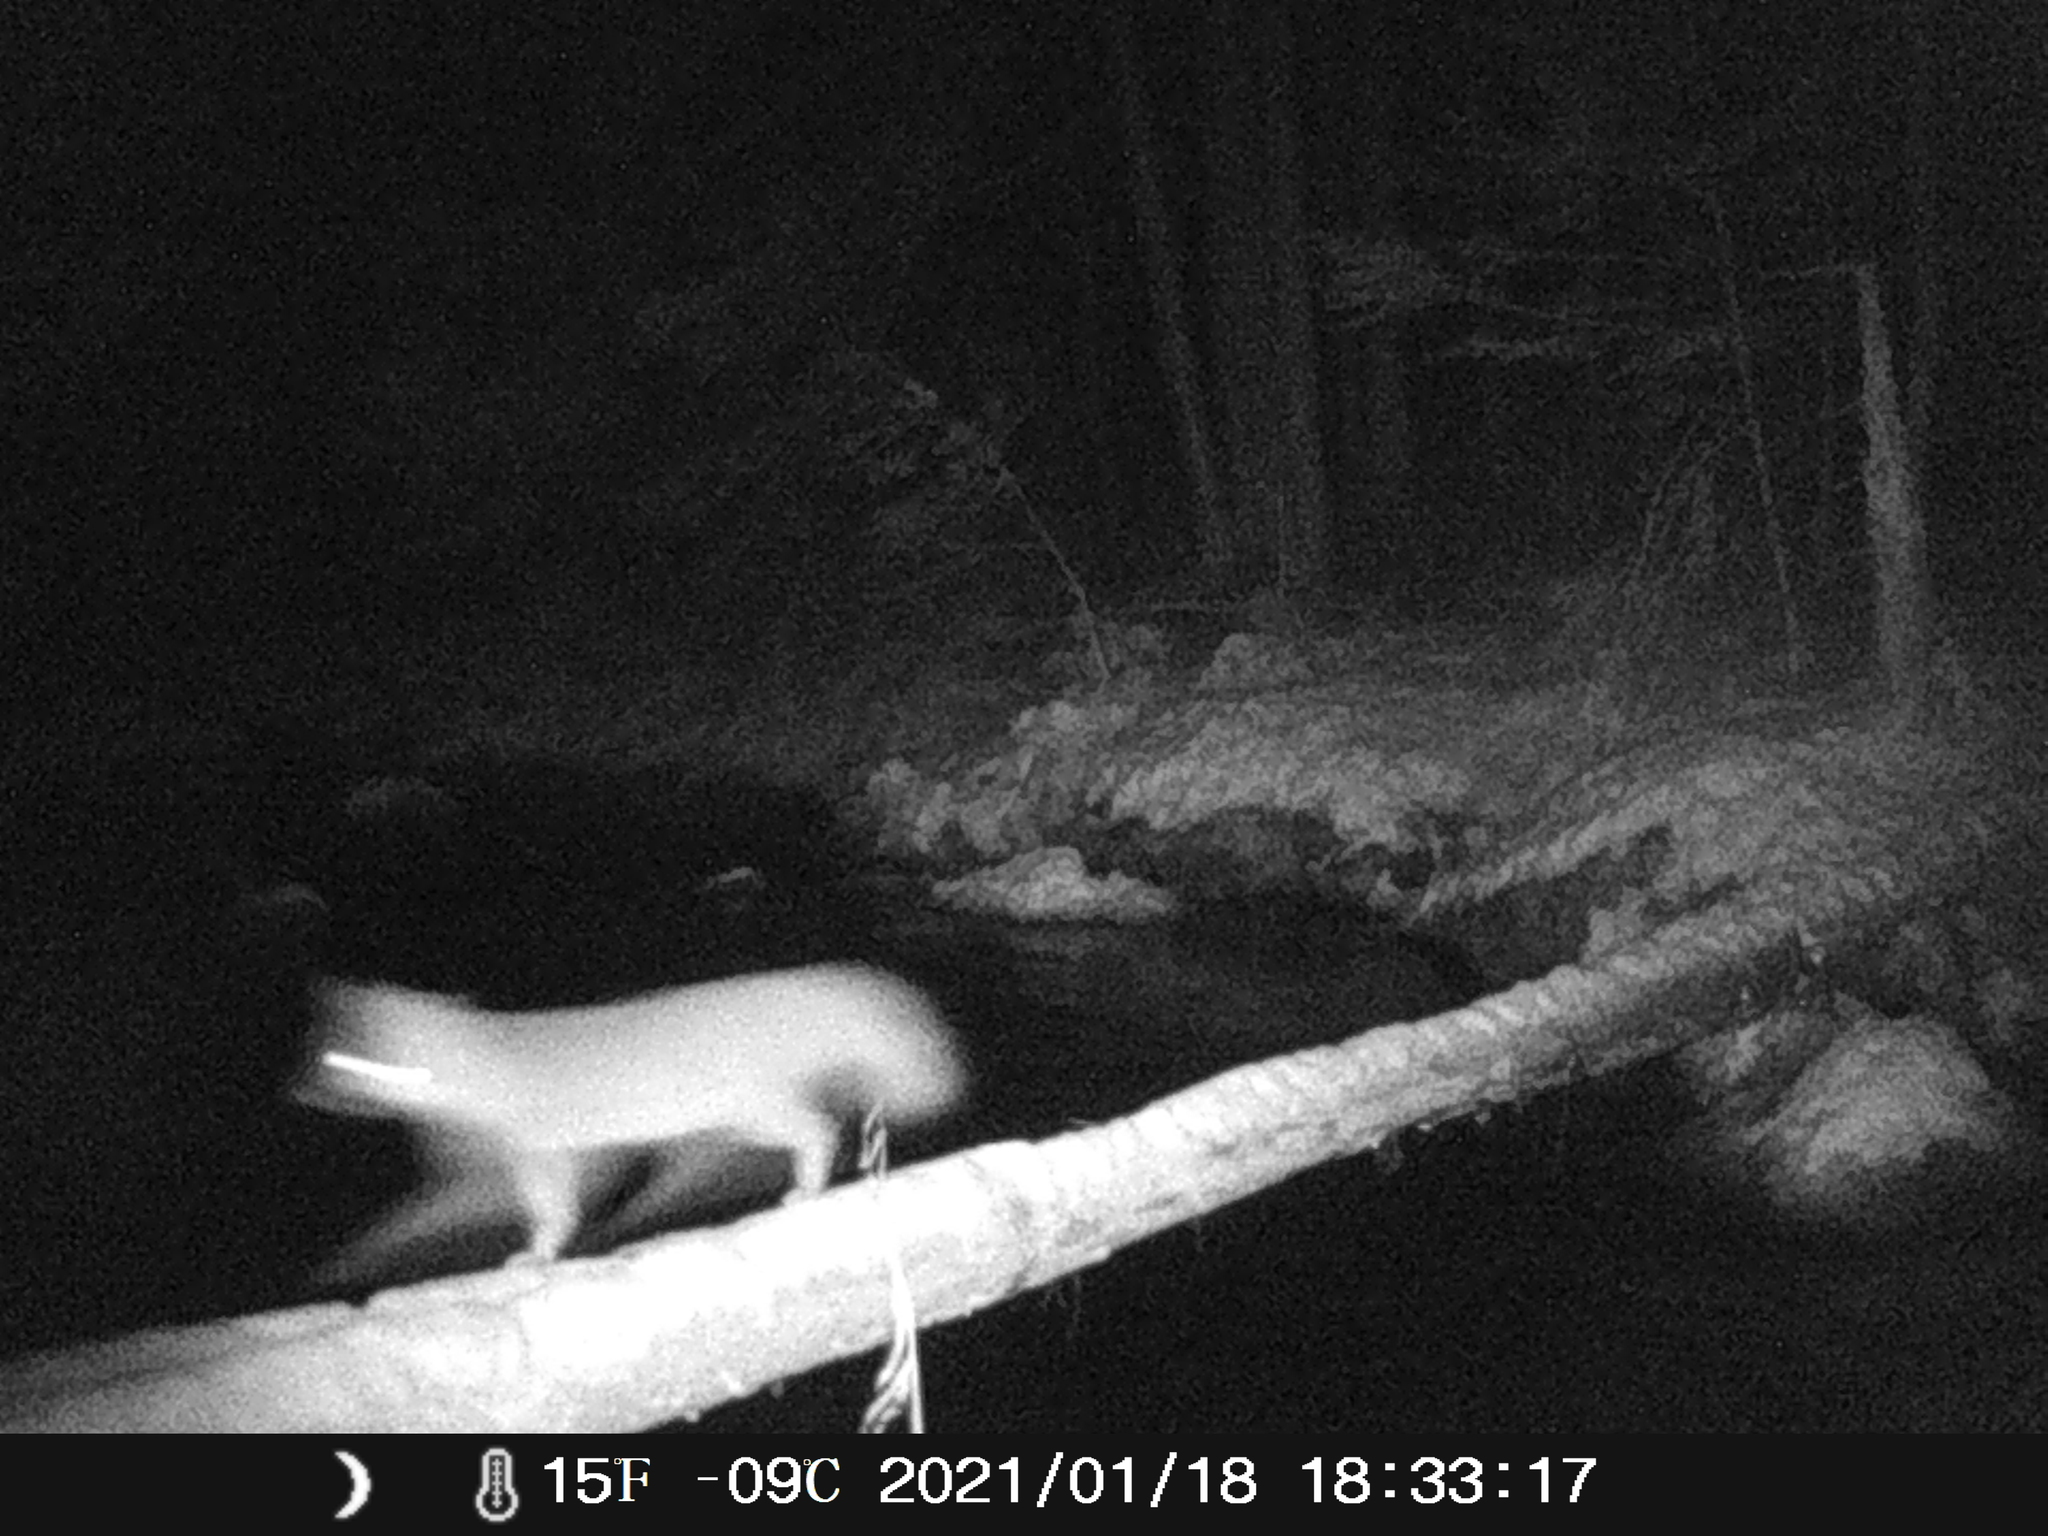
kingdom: Animalia
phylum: Chordata
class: Mammalia
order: Carnivora
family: Canidae
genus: Urocyon
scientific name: Urocyon cinereoargenteus
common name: Gray fox
